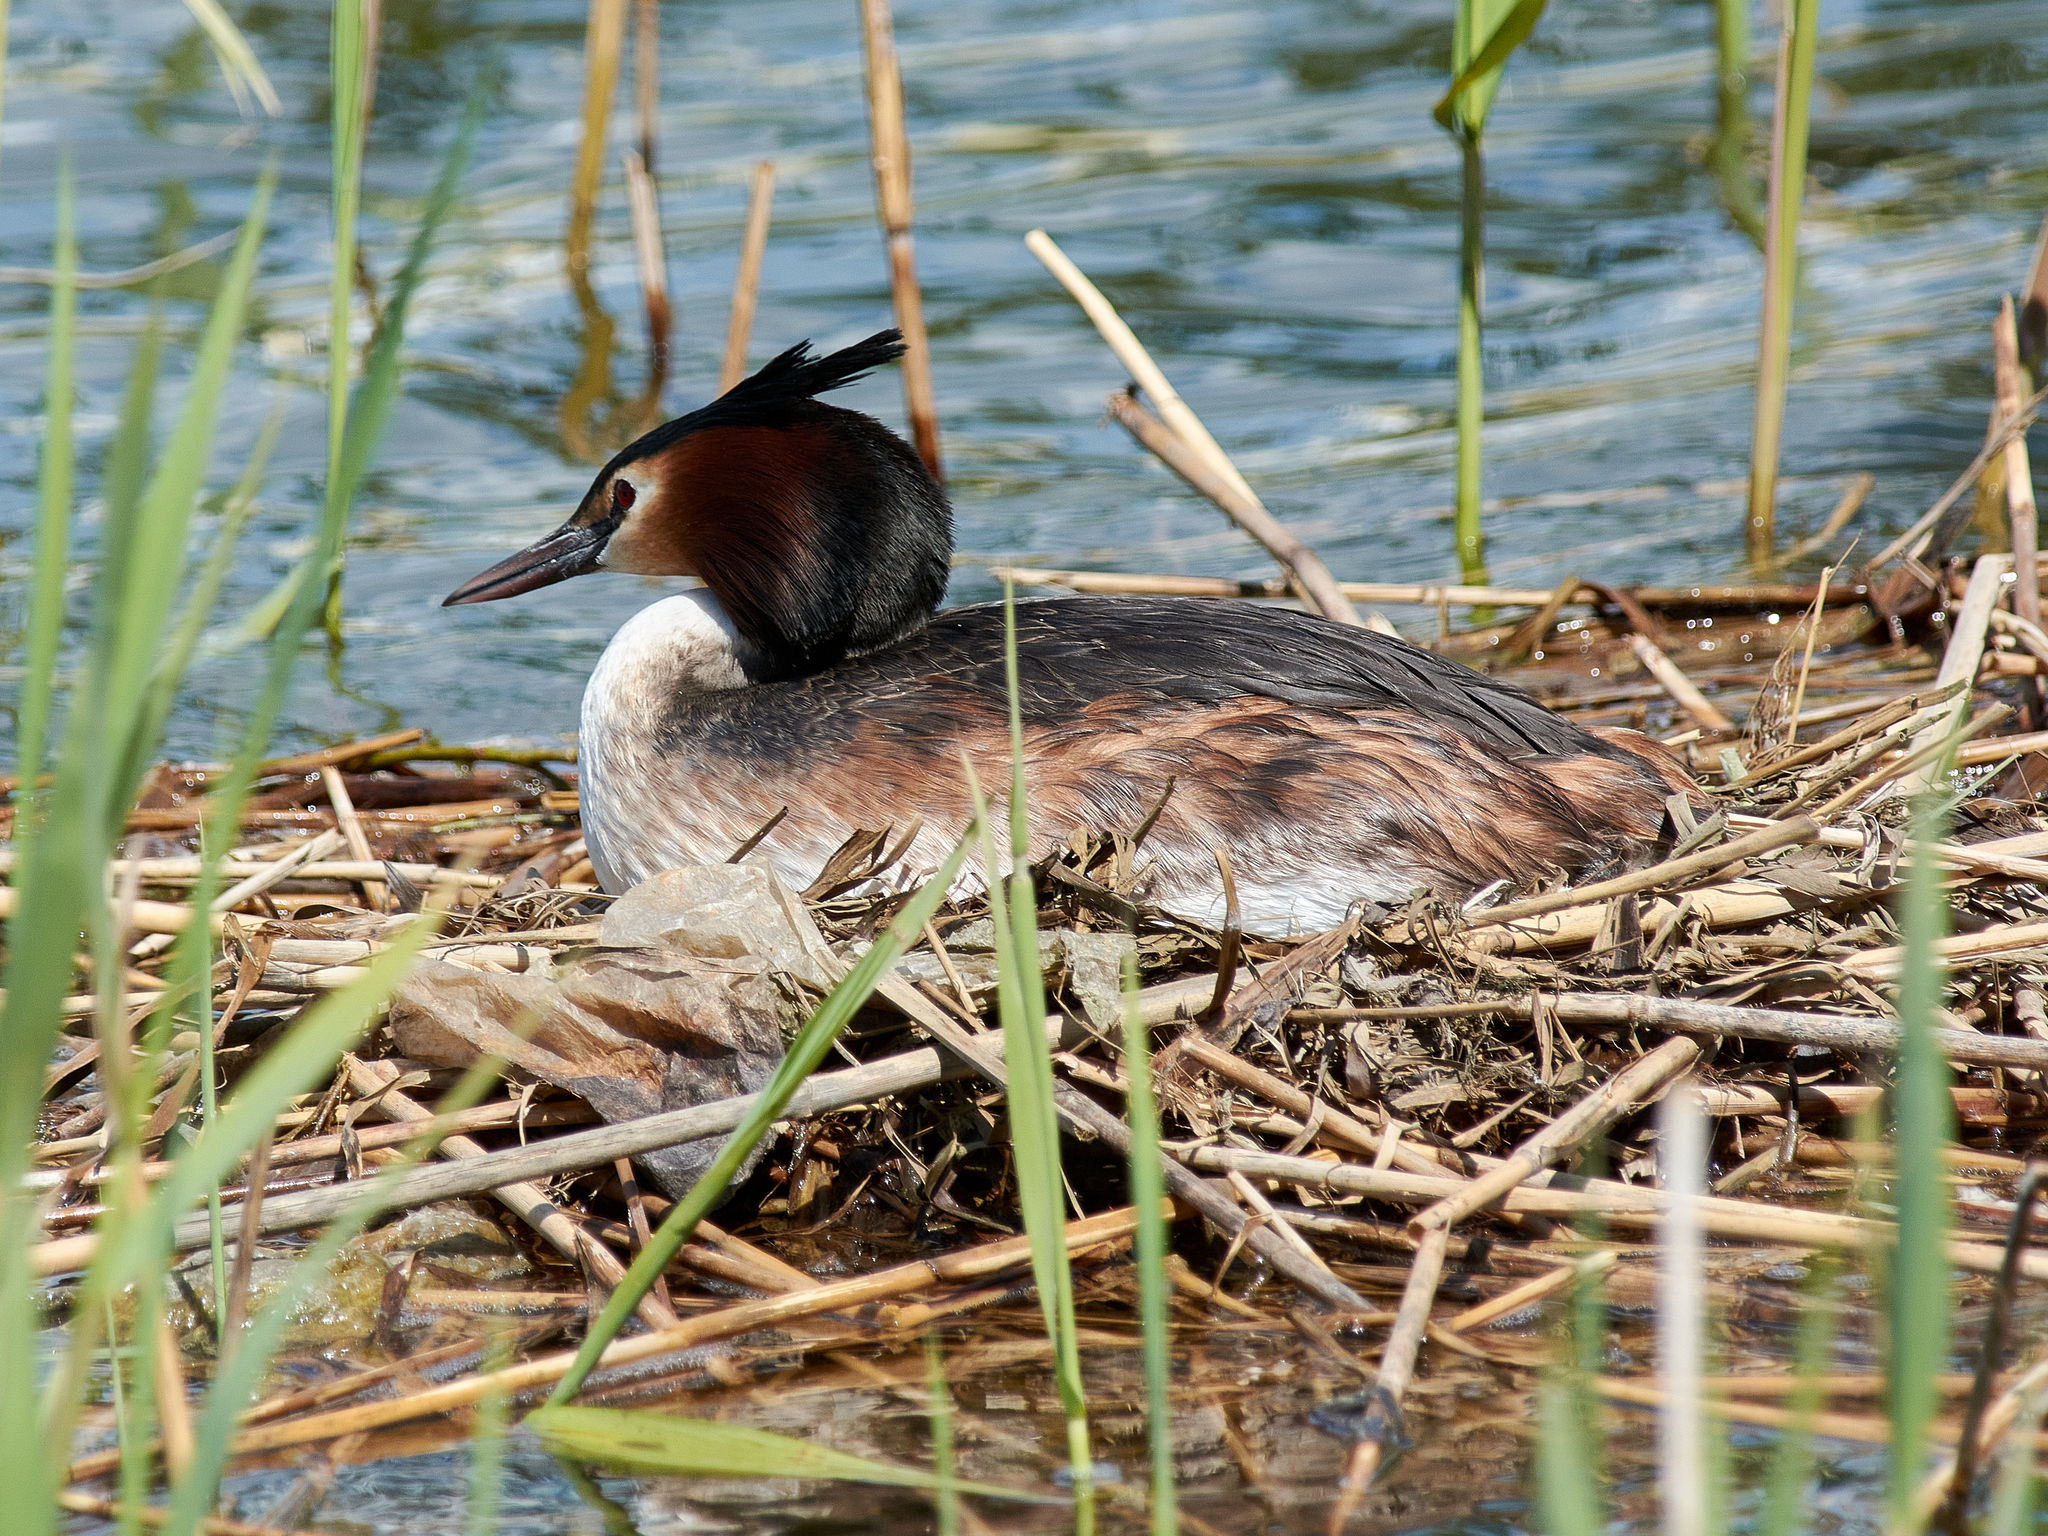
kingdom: Animalia
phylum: Chordata
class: Aves
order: Podicipediformes
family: Podicipedidae
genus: Podiceps
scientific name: Podiceps cristatus
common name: Great crested grebe
